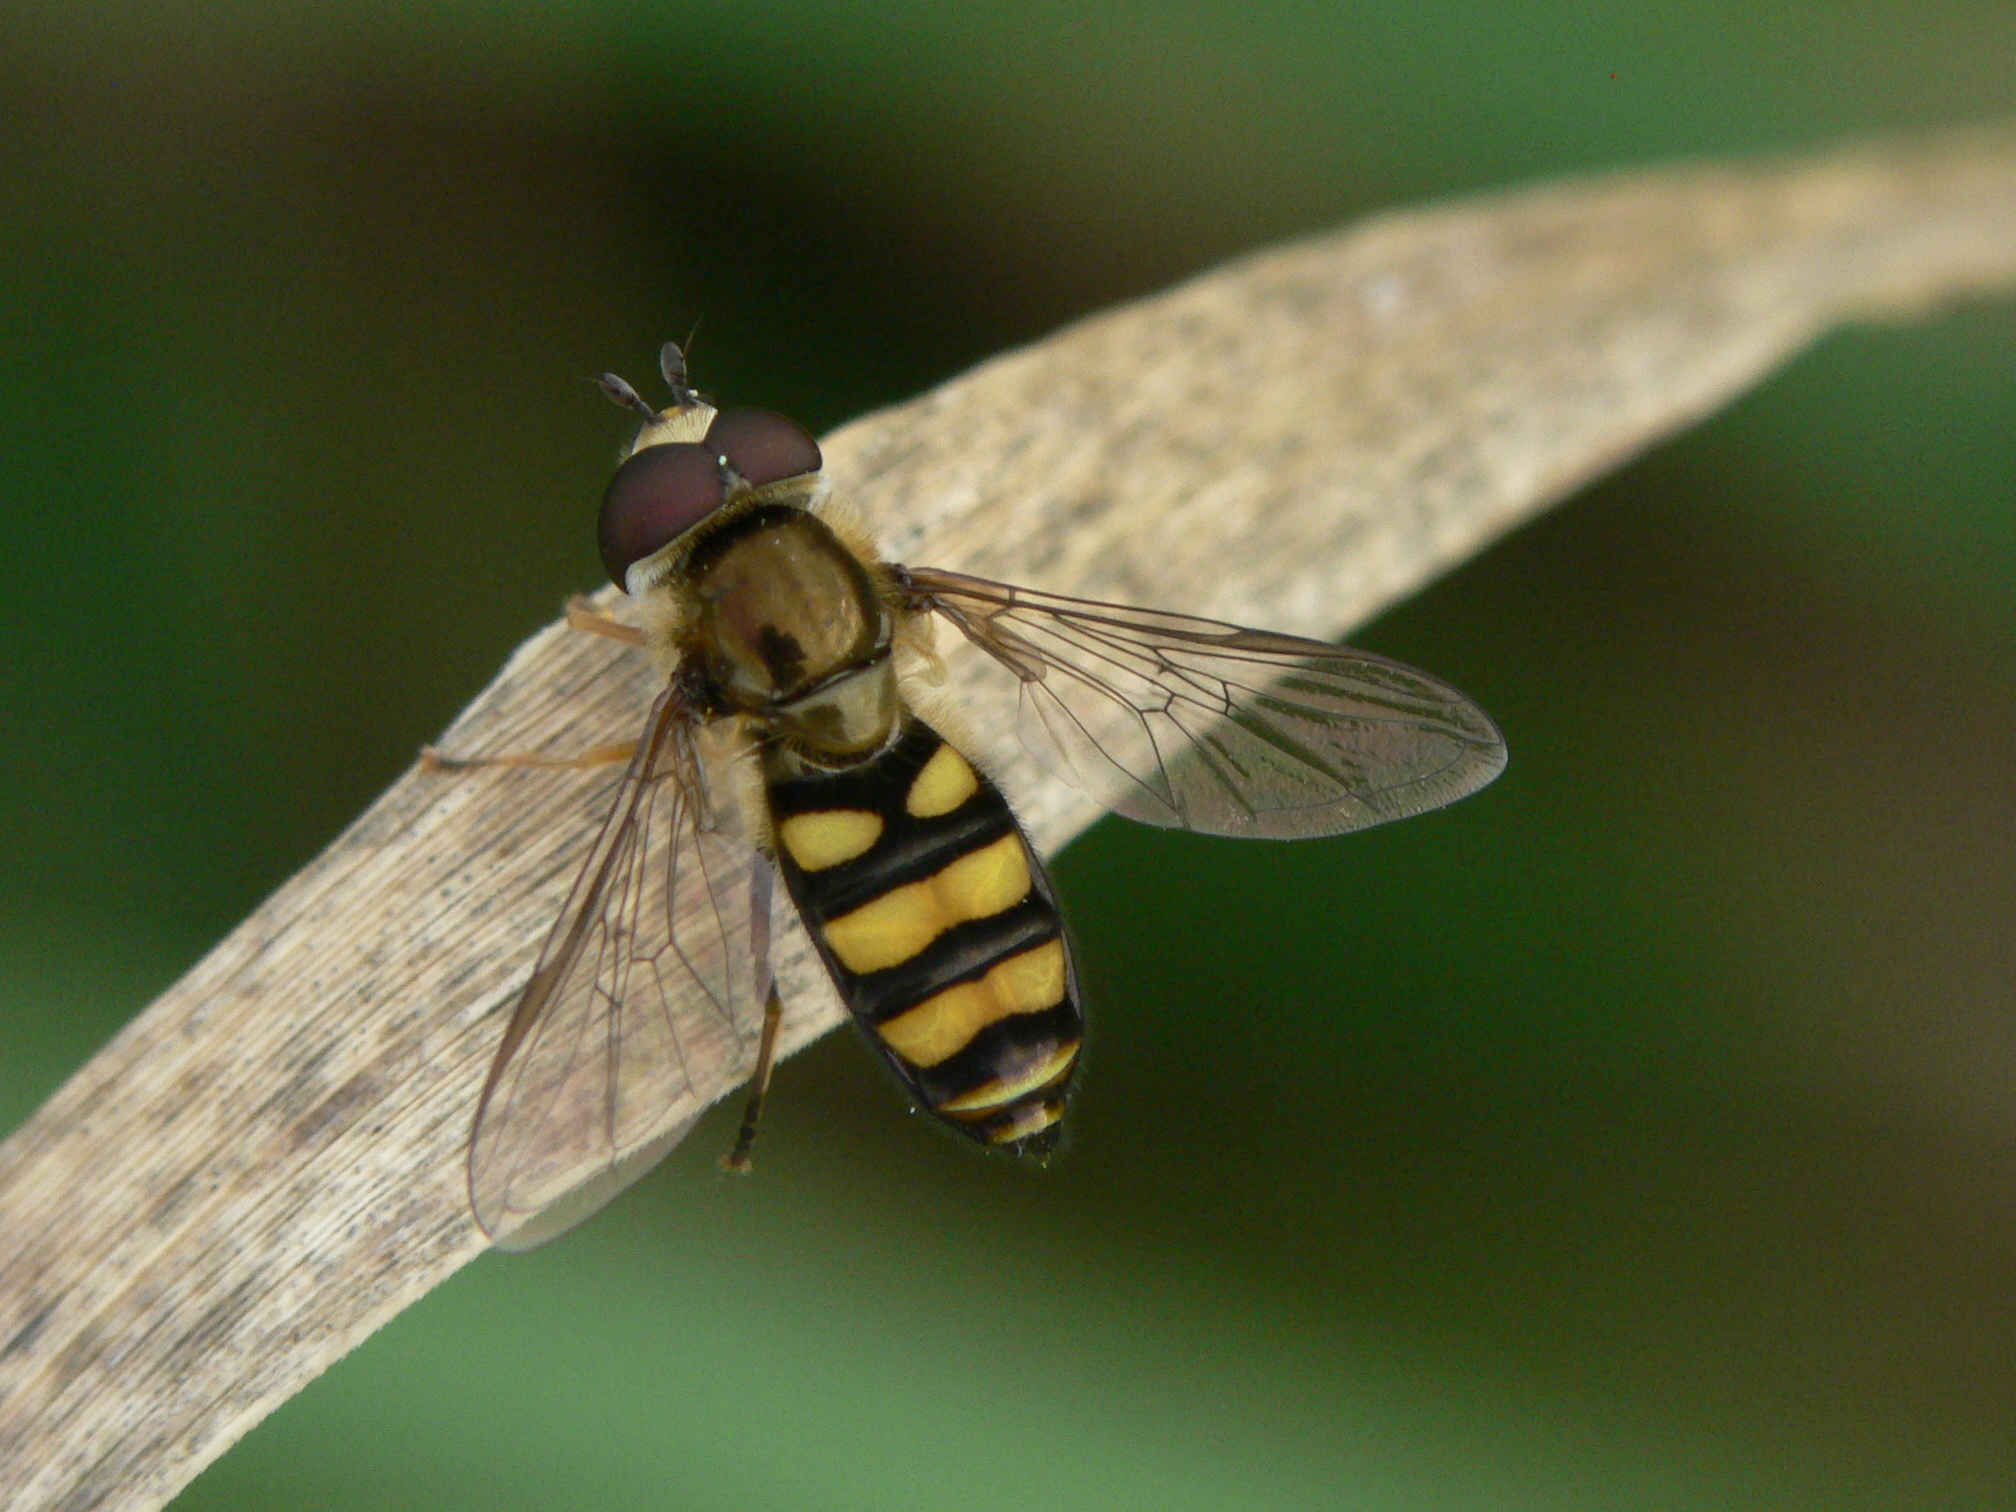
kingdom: Animalia
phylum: Arthropoda
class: Insecta
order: Diptera
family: Syrphidae
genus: Eupeodes
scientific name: Eupeodes
